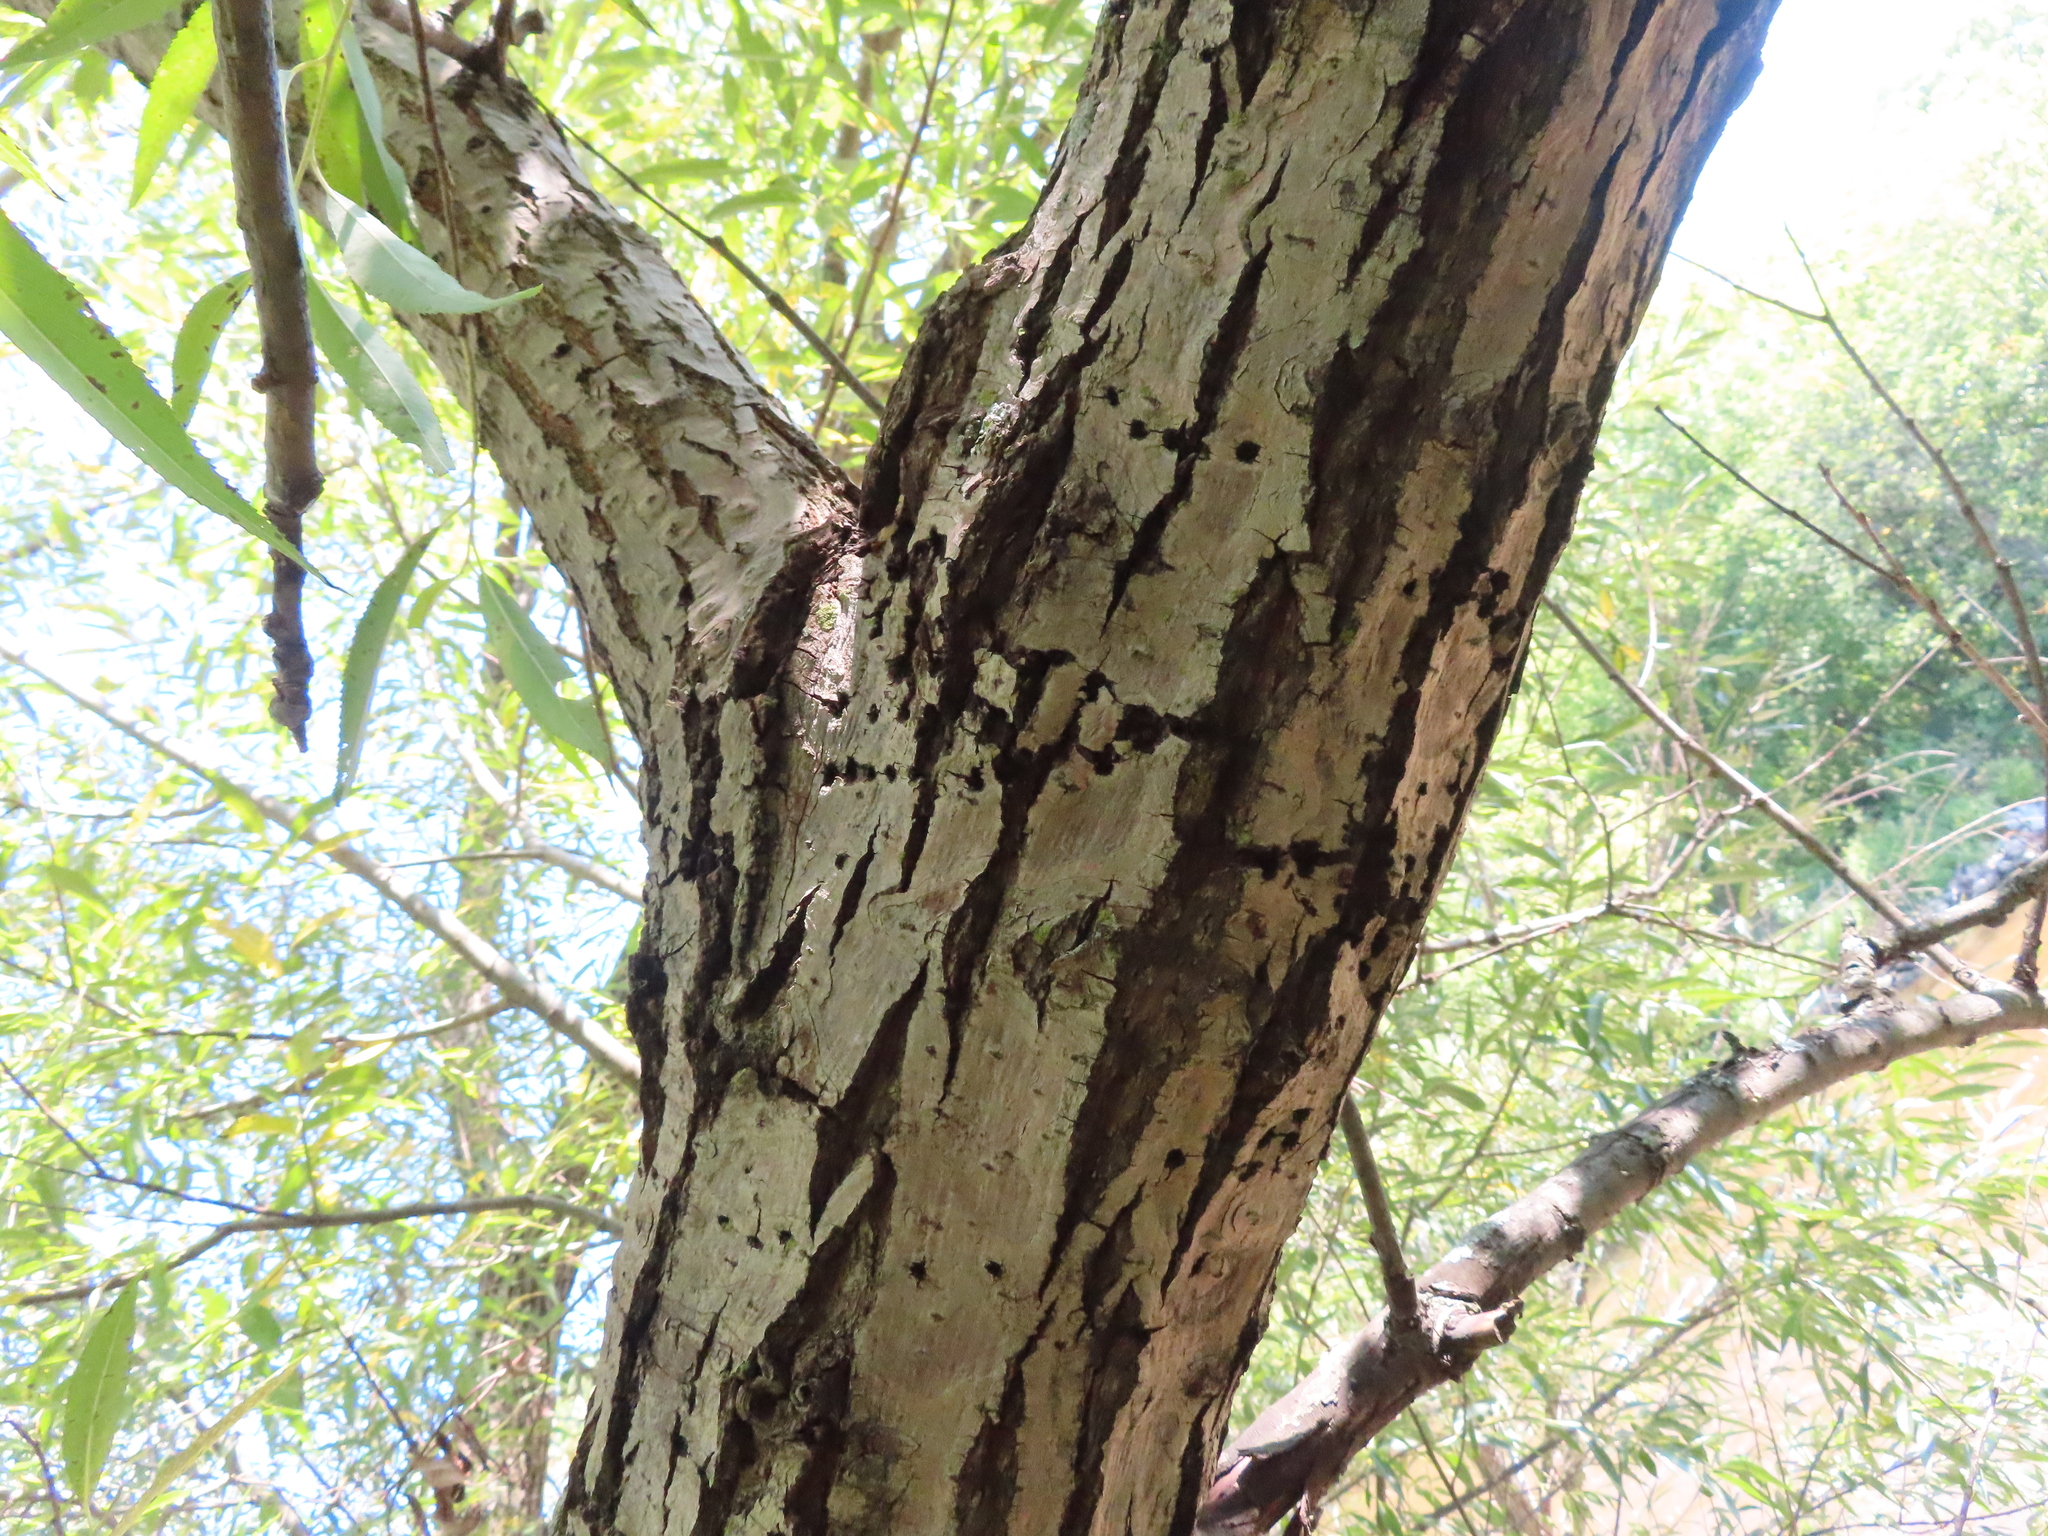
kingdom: Animalia
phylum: Chordata
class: Aves
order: Piciformes
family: Picidae
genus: Sphyrapicus
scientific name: Sphyrapicus varius
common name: Yellow-bellied sapsucker
